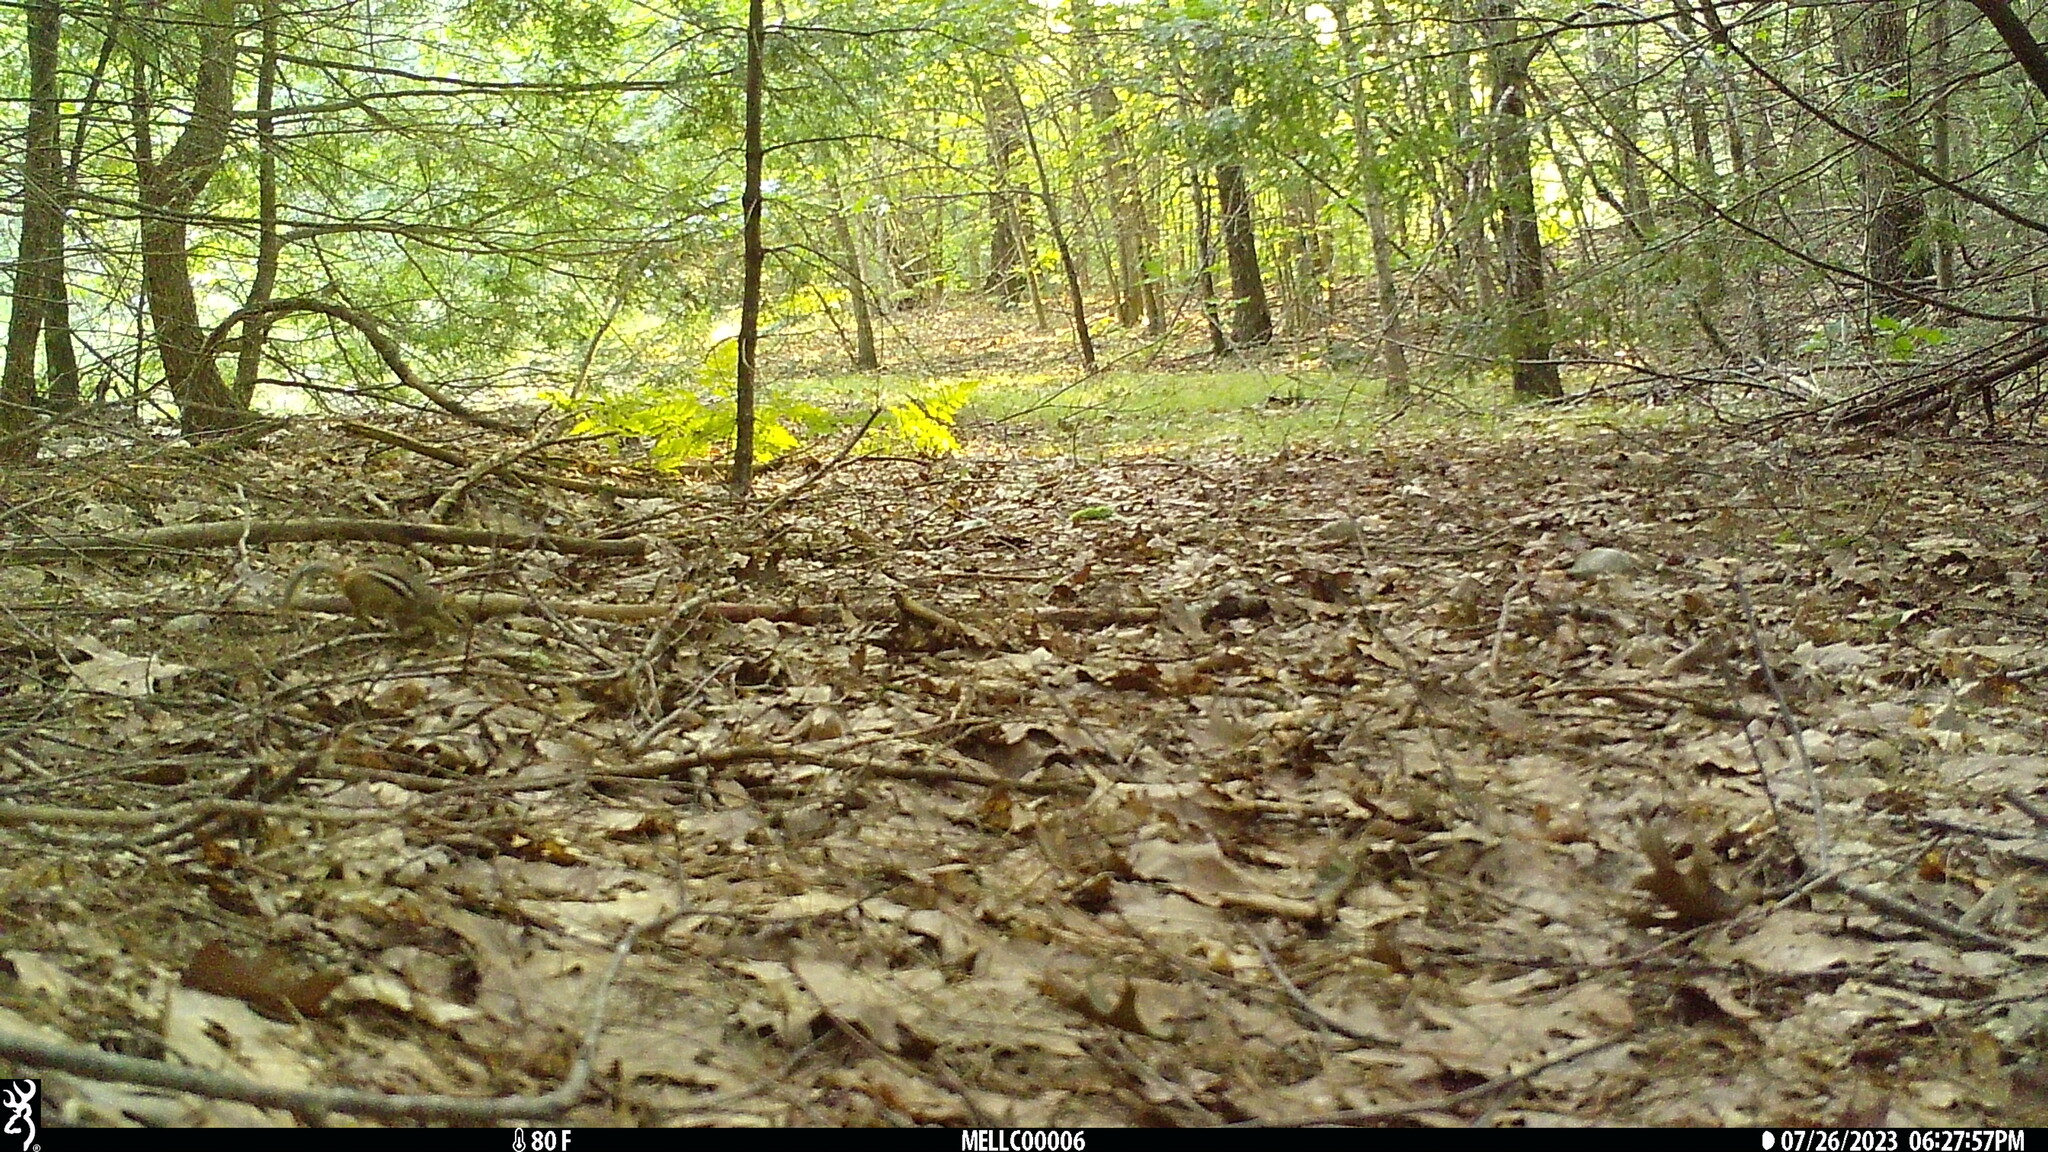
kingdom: Animalia
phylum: Chordata
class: Mammalia
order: Rodentia
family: Sciuridae
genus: Tamias
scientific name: Tamias striatus
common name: Eastern chipmunk
